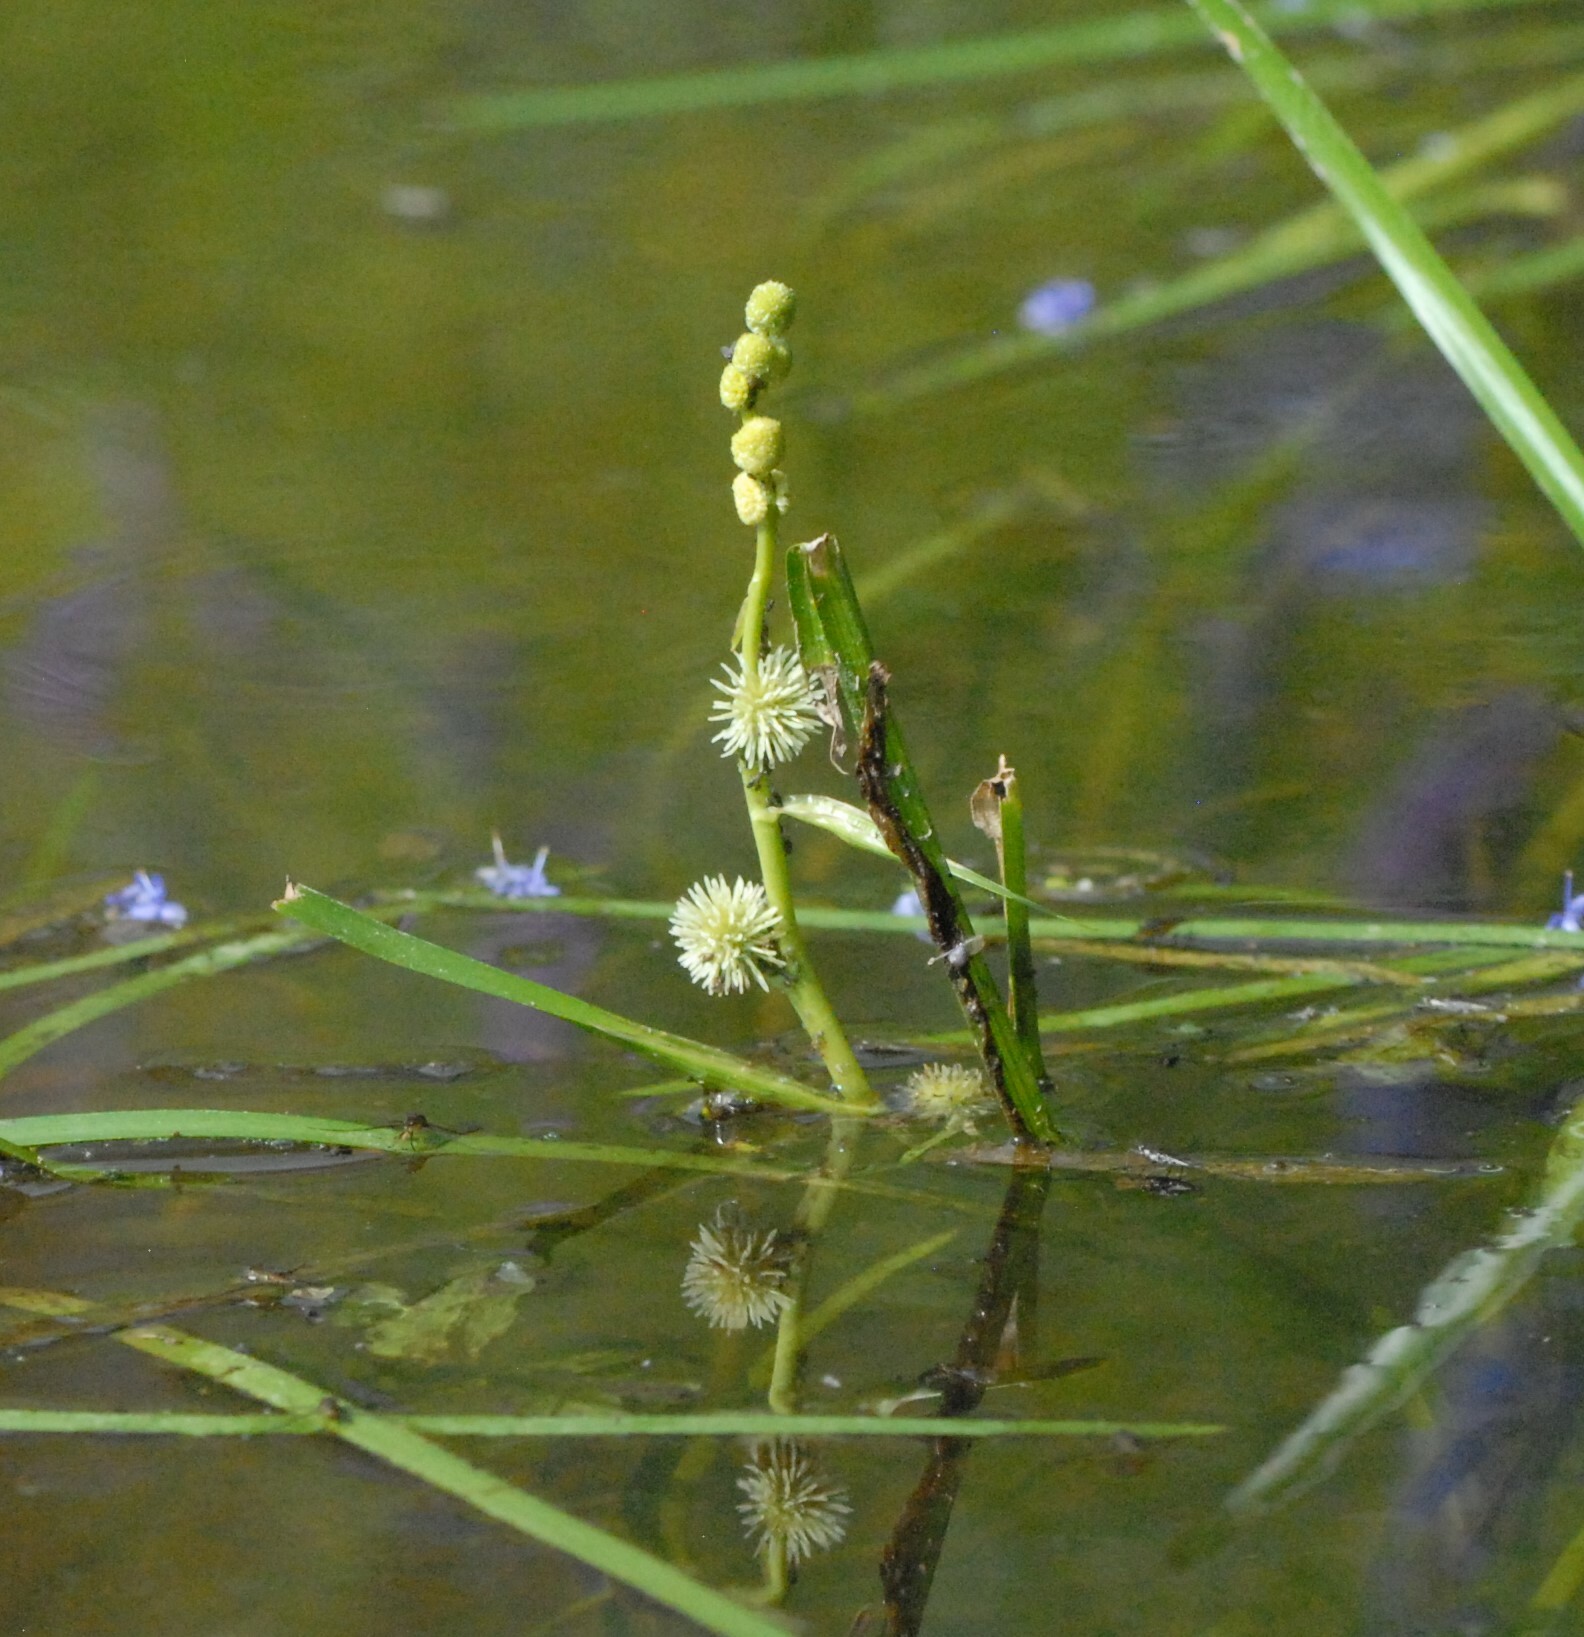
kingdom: Plantae
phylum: Tracheophyta
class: Liliopsida
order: Poales
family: Typhaceae
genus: Sparganium
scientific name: Sparganium emersum
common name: Unbranched bur-reed
